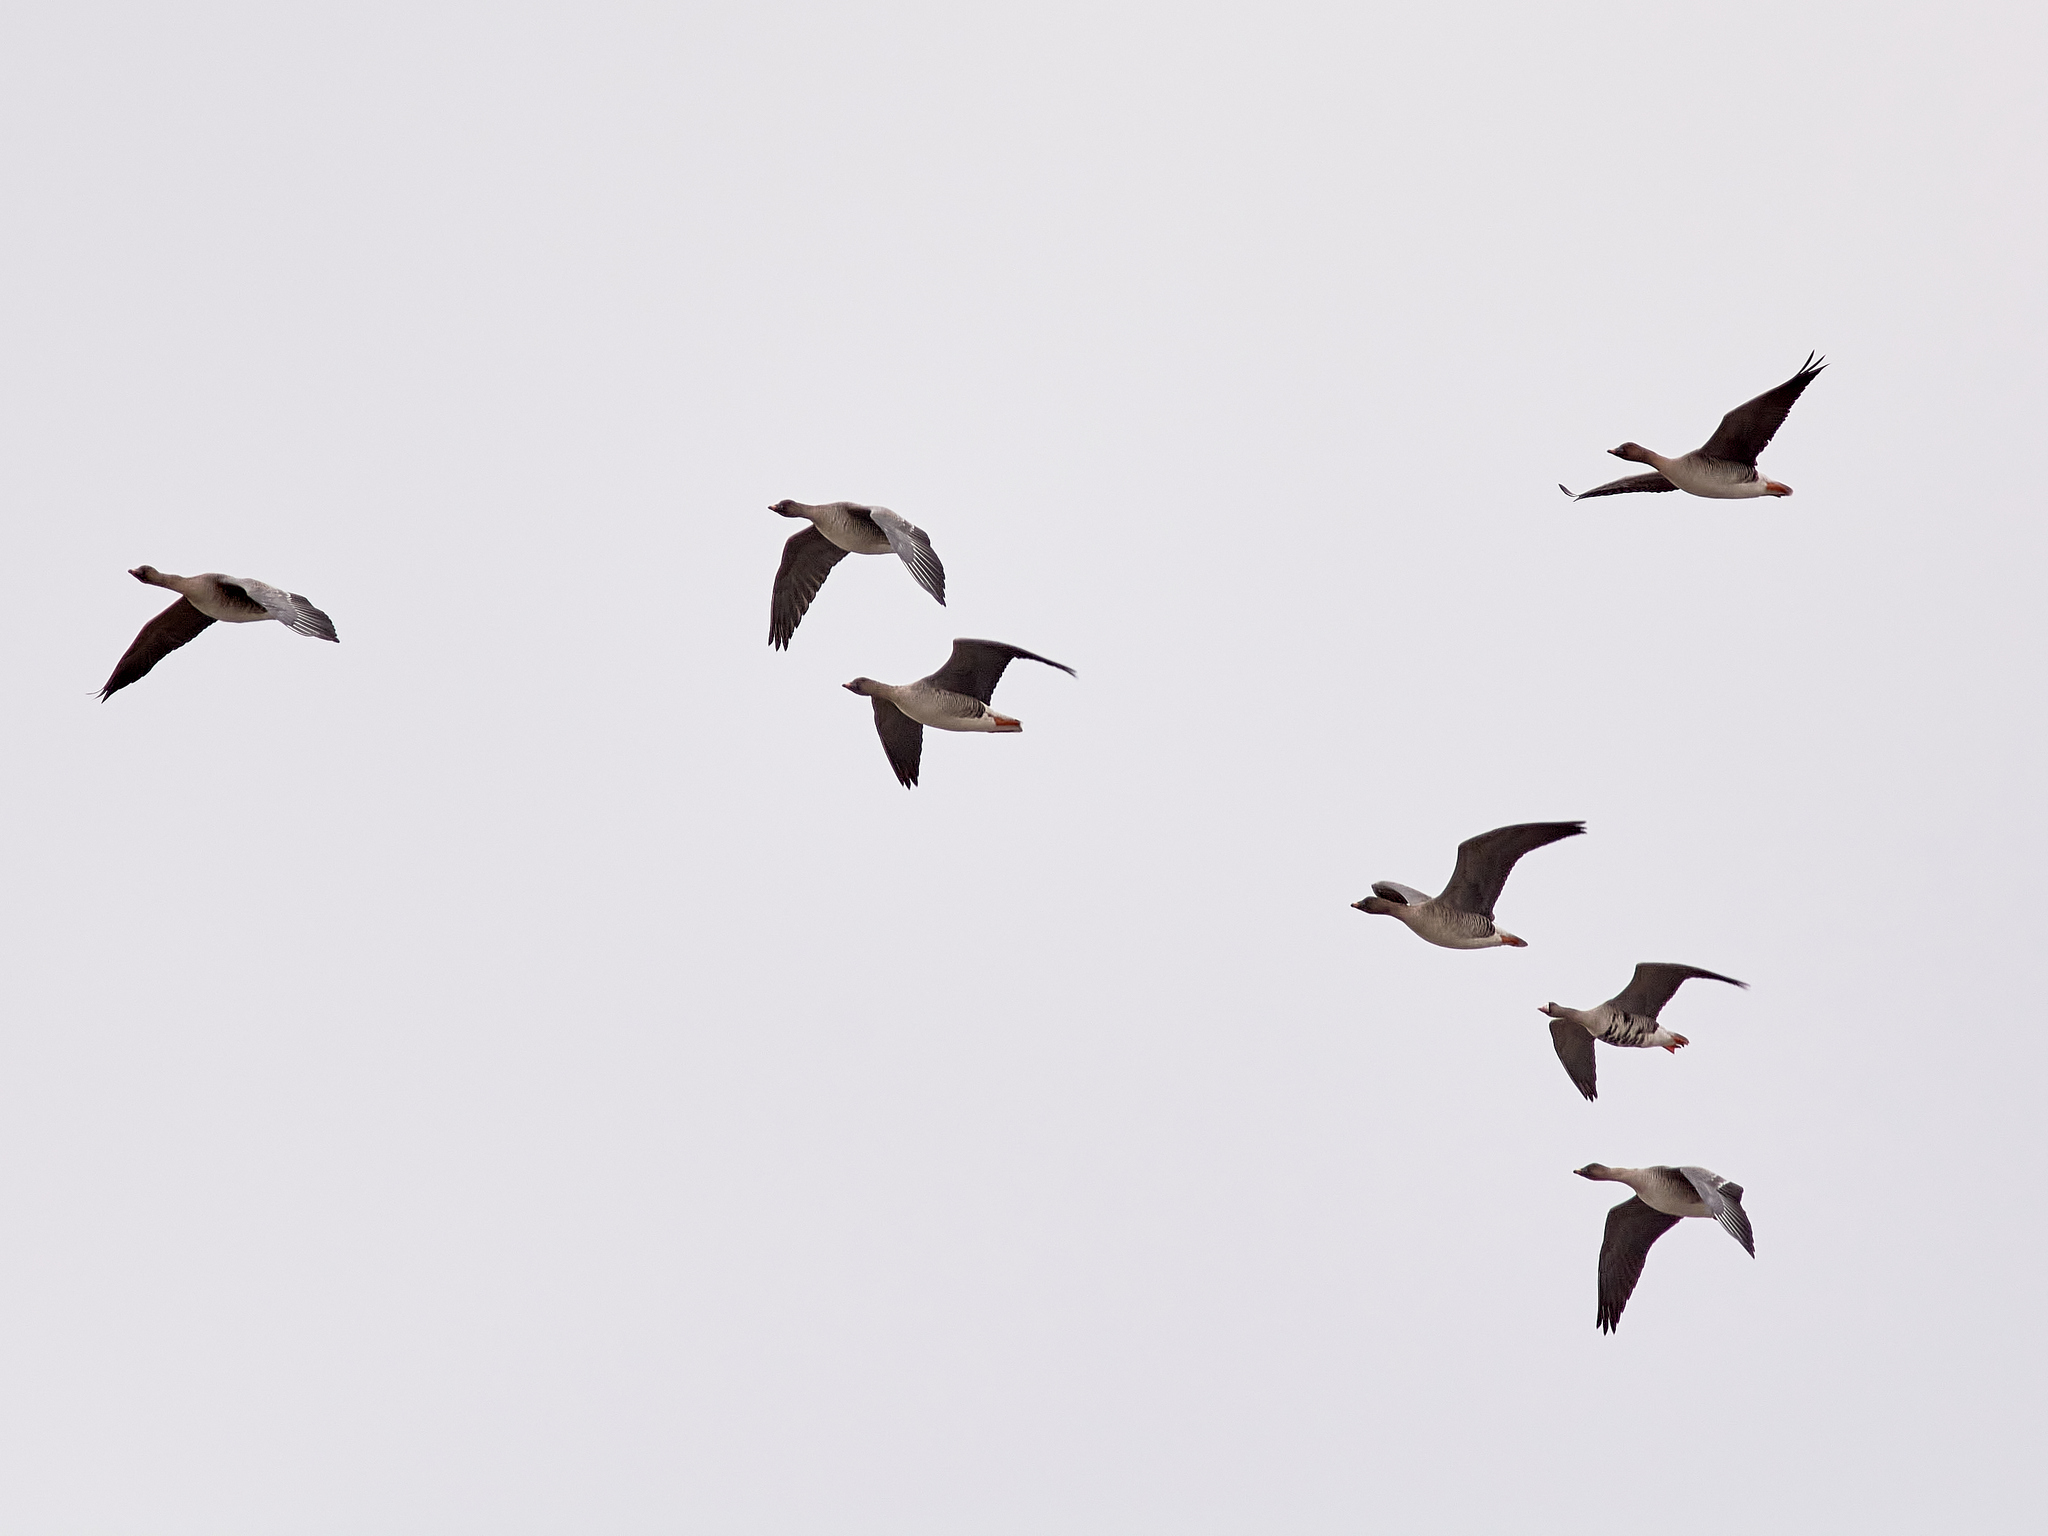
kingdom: Animalia
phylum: Chordata
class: Aves
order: Anseriformes
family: Anatidae
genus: Anser
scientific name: Anser serrirostris
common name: Tundra bean goose
